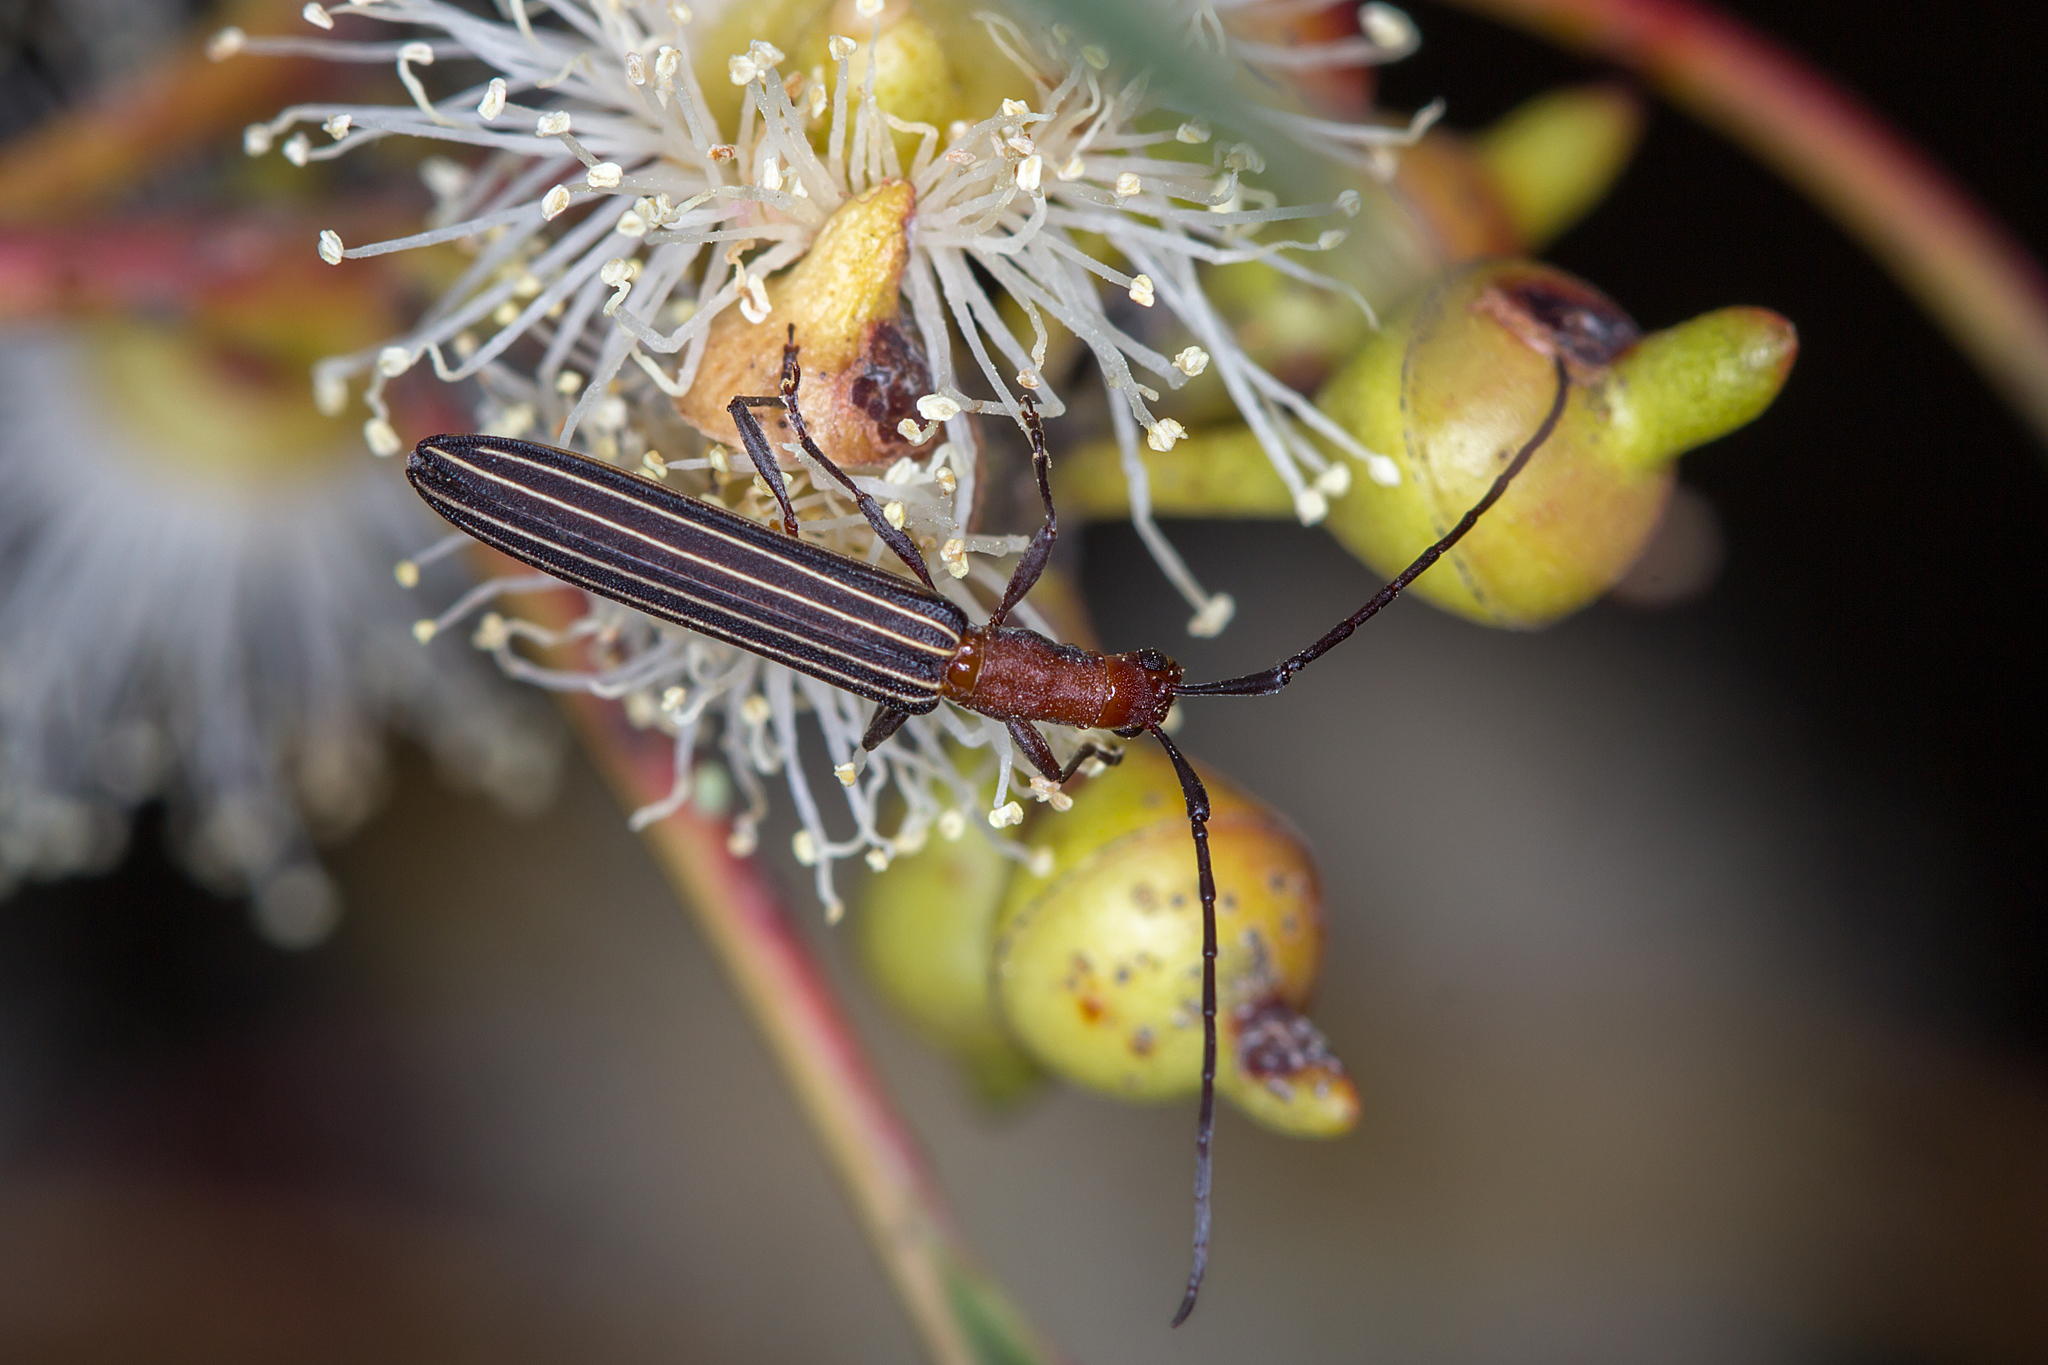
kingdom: Animalia
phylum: Arthropoda
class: Insecta
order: Coleoptera
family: Cerambycidae
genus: Syllitus
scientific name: Syllitus rectus
